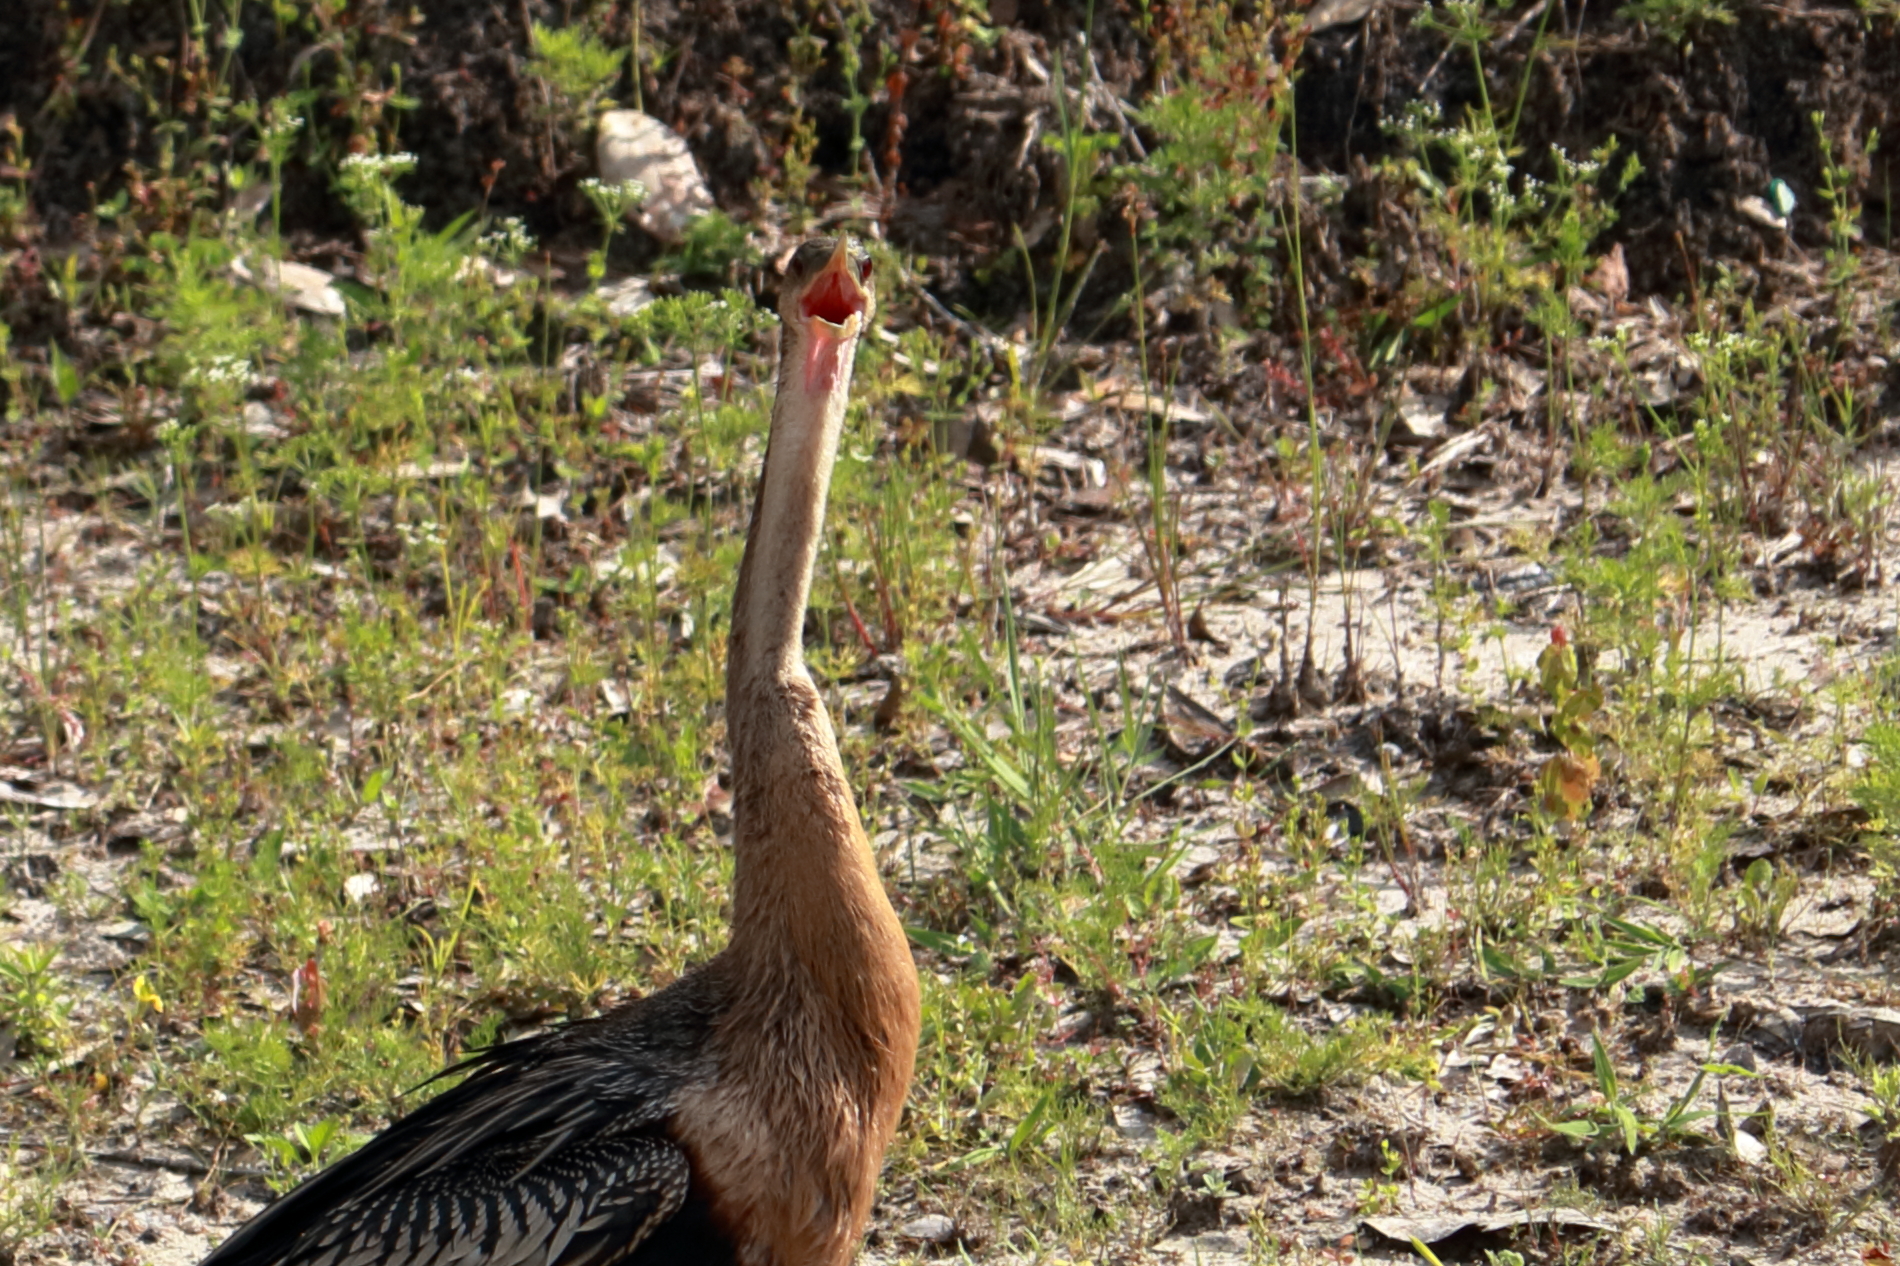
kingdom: Animalia
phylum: Chordata
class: Aves
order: Suliformes
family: Anhingidae
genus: Anhinga
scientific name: Anhinga anhinga
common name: Anhinga
